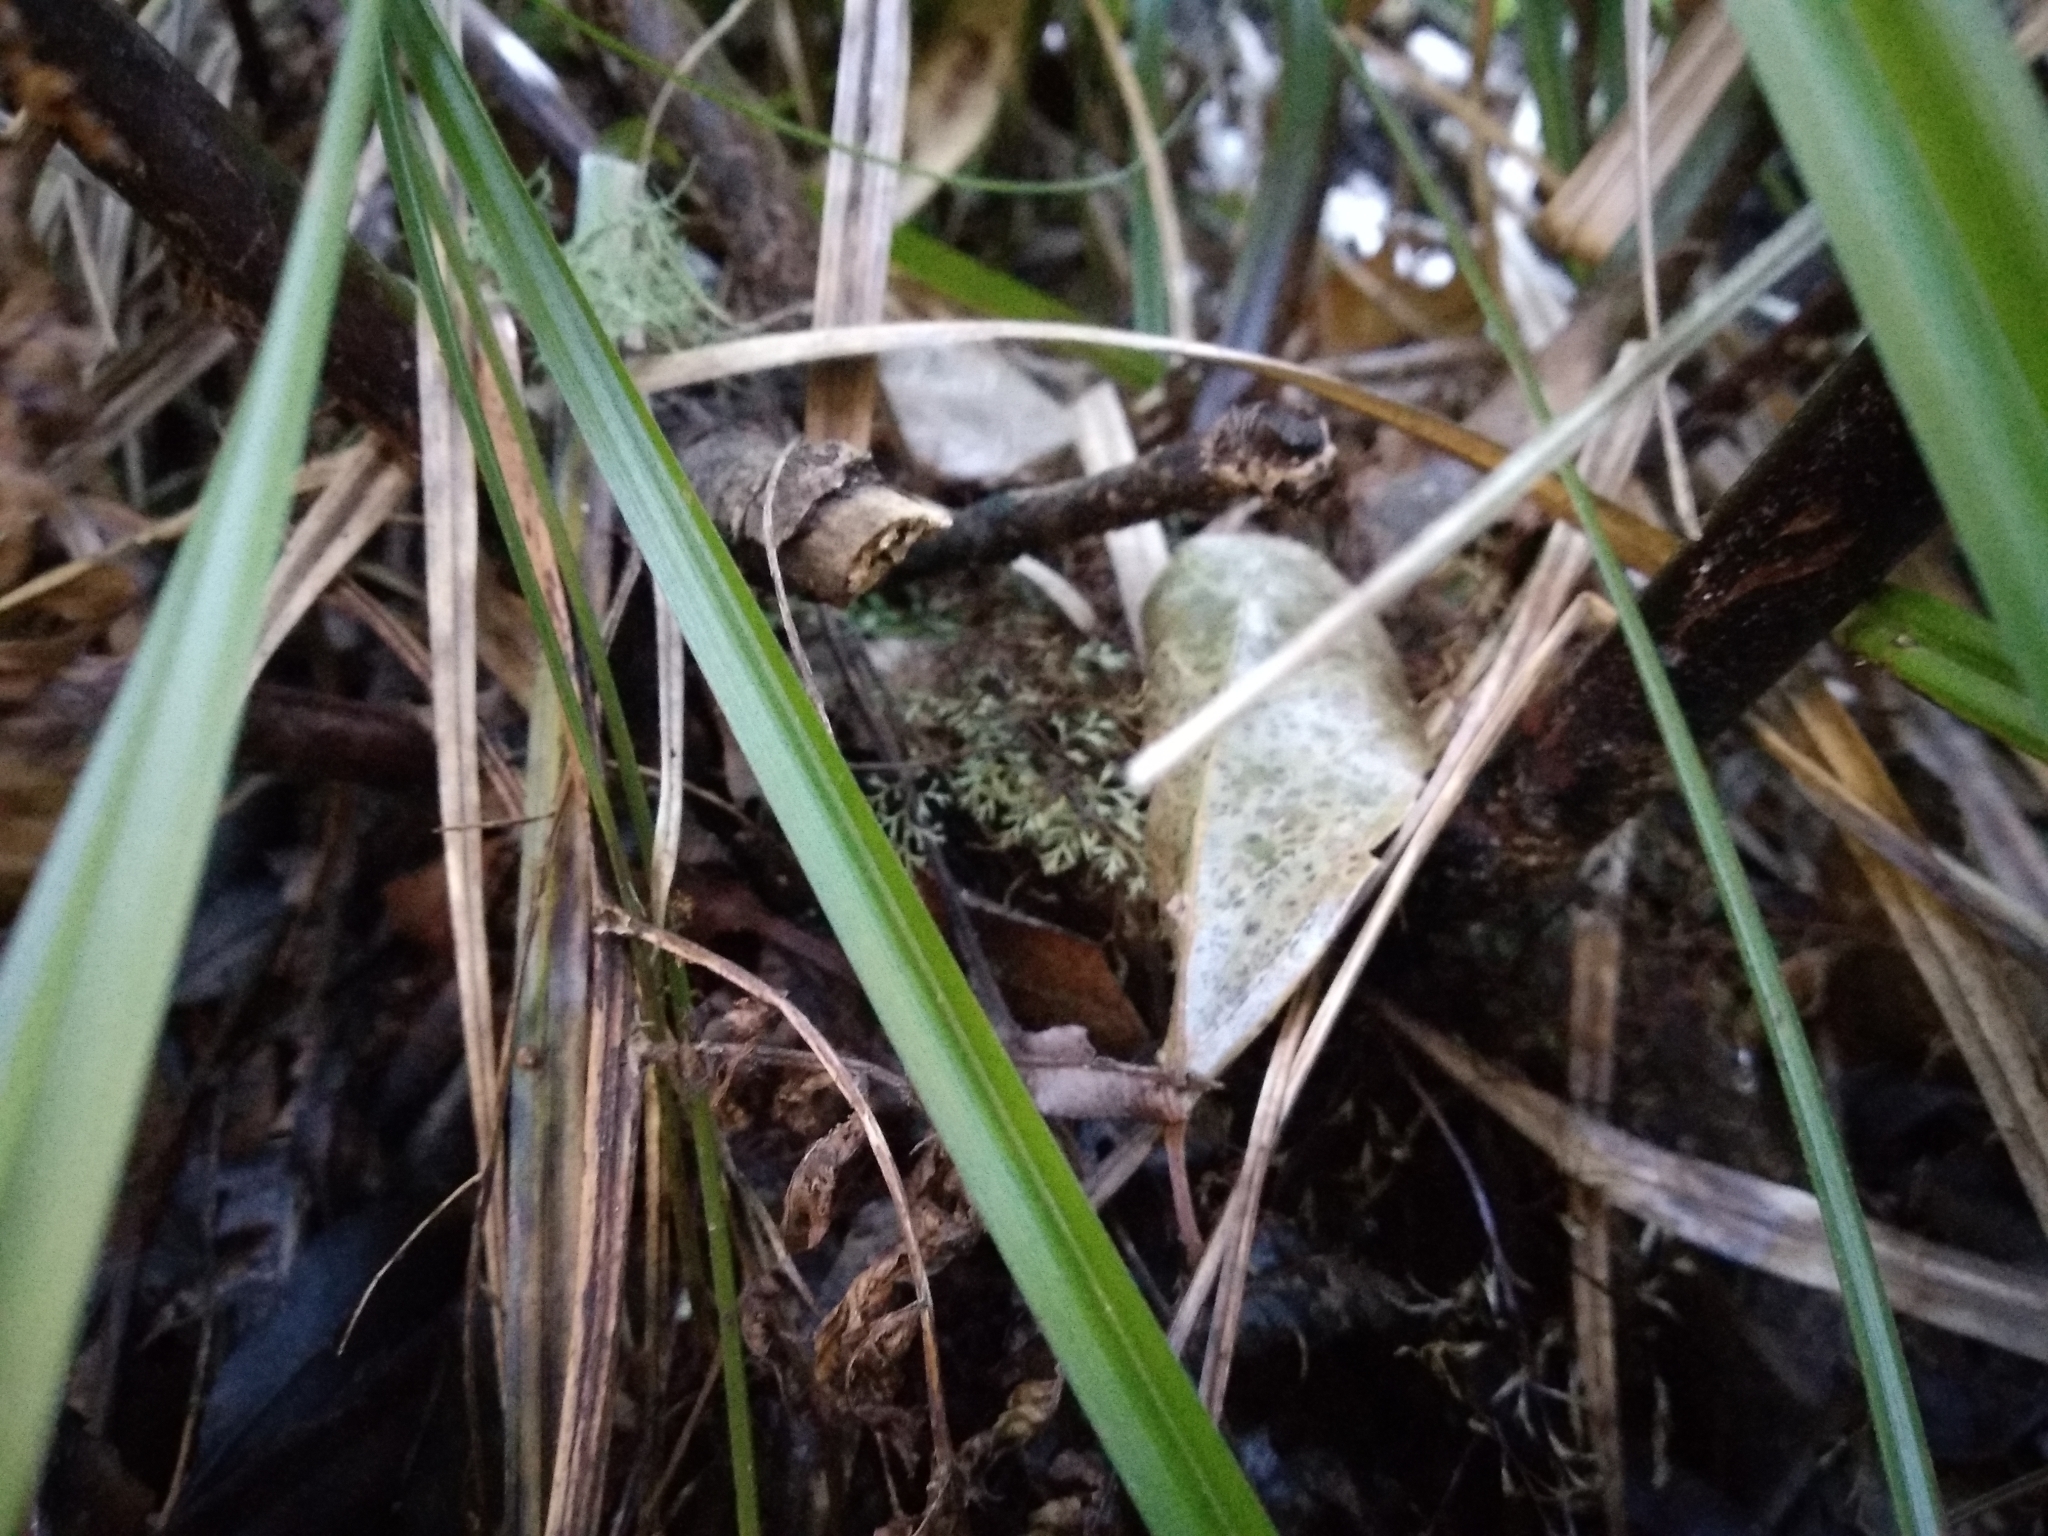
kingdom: Plantae
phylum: Tracheophyta
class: Polypodiopsida
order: Cyatheales
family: Cyatheaceae
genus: Gymnosphaera
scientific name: Gymnosphaera capensis
